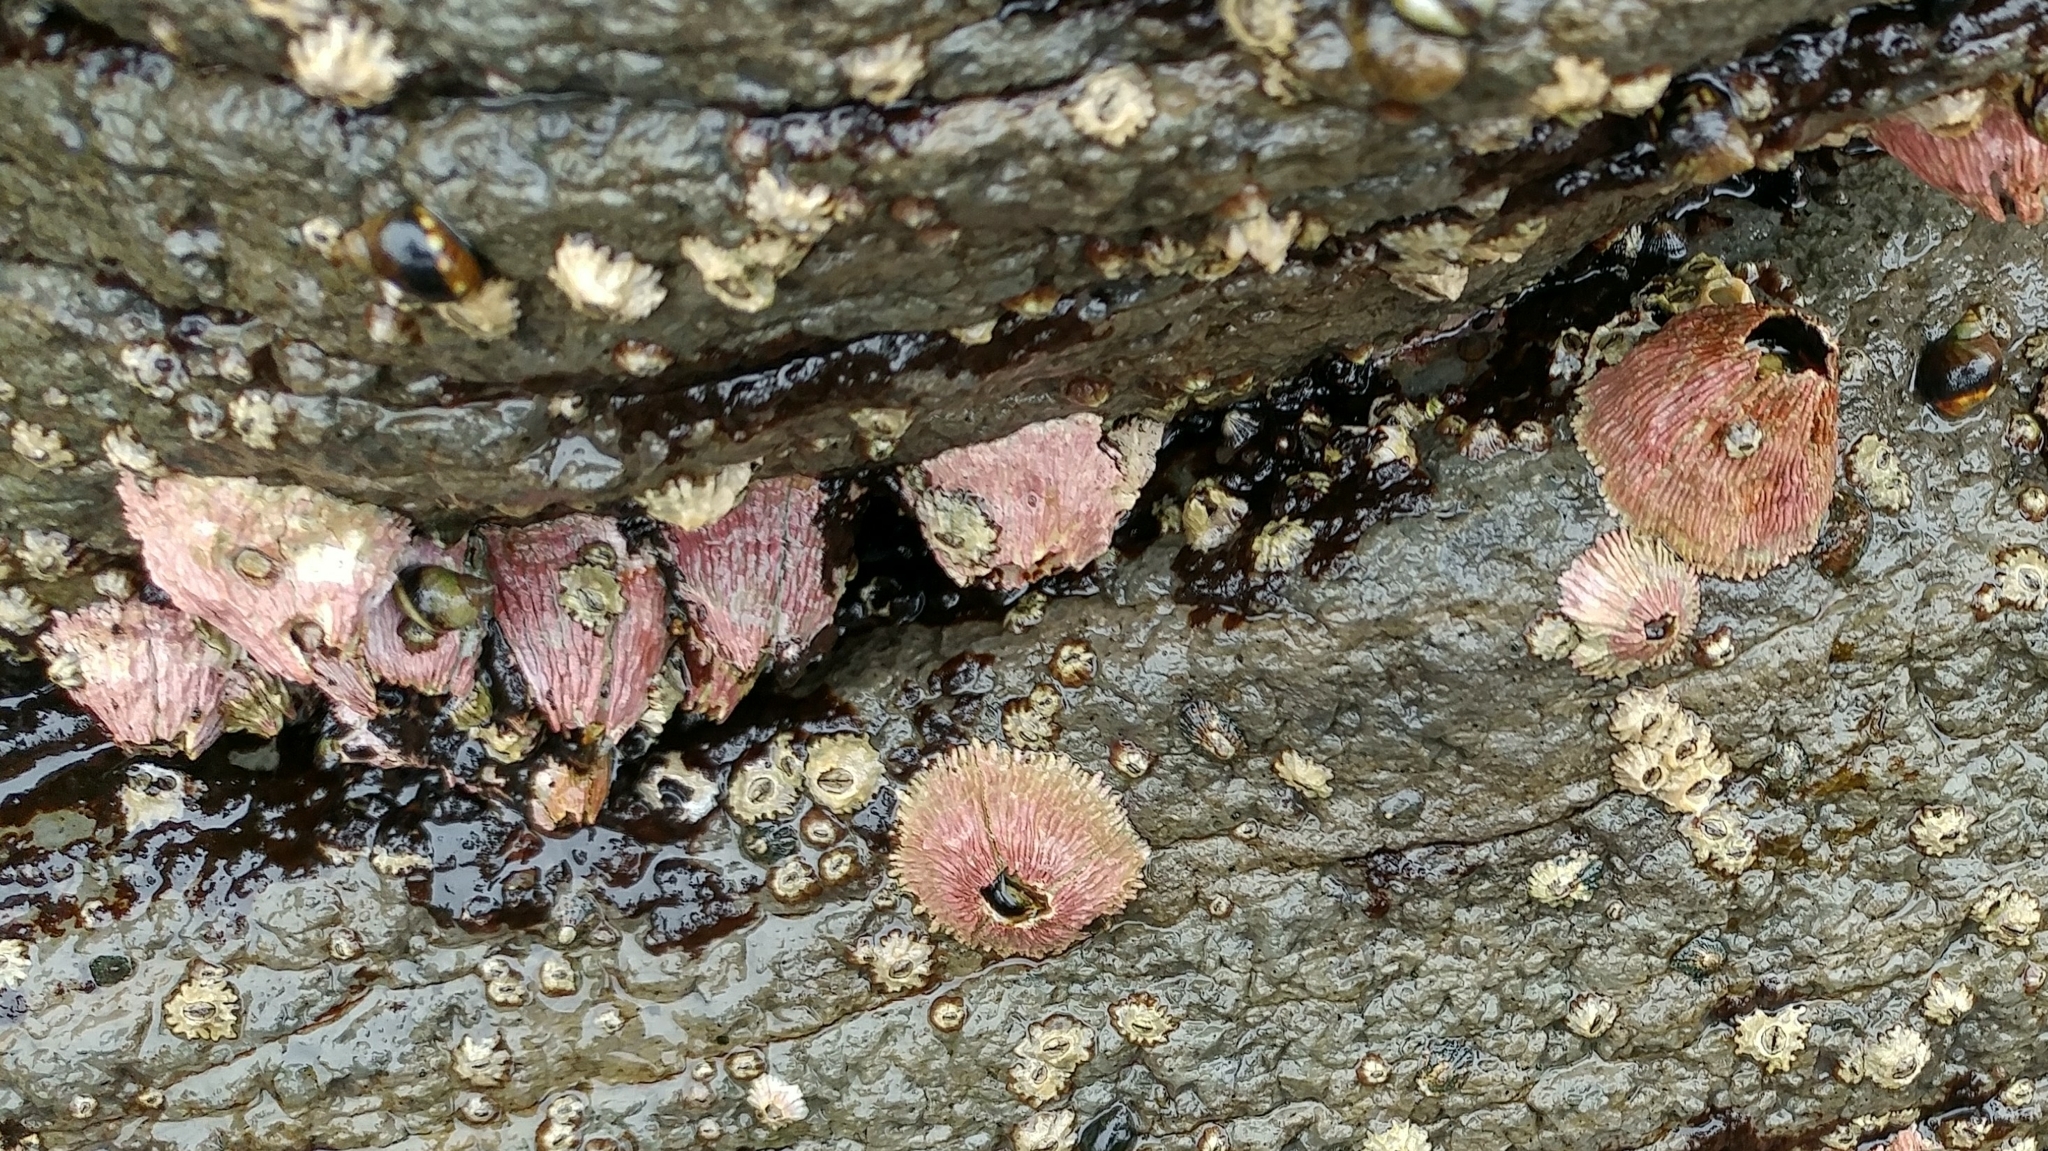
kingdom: Animalia
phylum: Arthropoda
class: Maxillopoda
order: Sessilia
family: Tetraclitidae
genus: Tetraclita
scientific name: Tetraclita rubescens
